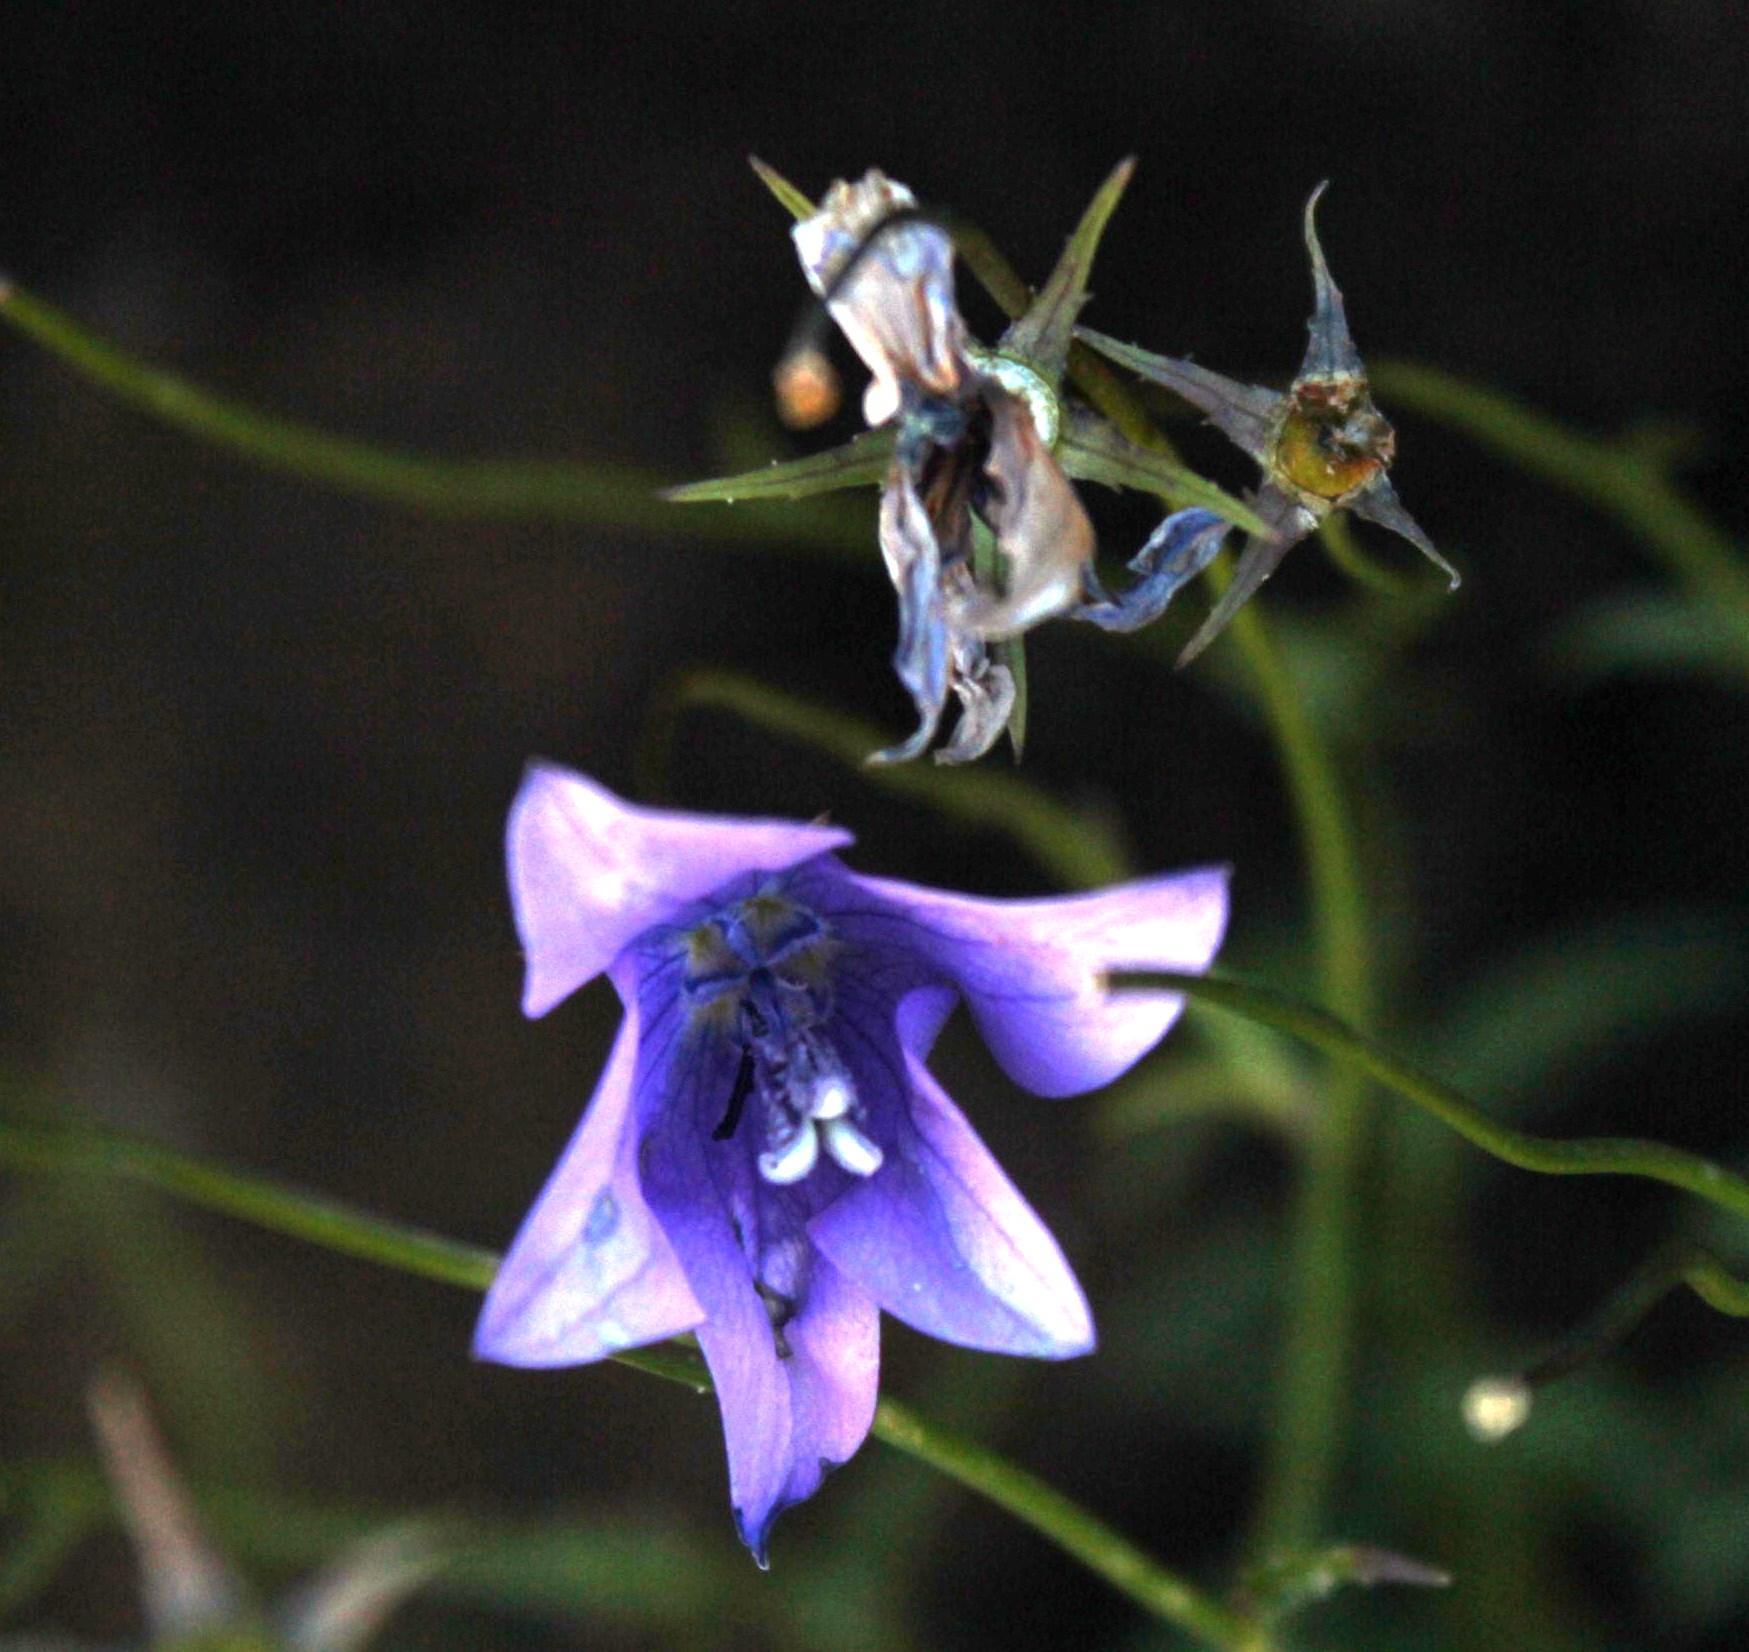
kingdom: Plantae
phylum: Tracheophyta
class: Magnoliopsida
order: Asterales
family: Campanulaceae
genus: Wahlenbergia
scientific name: Wahlenbergia cuspidata
